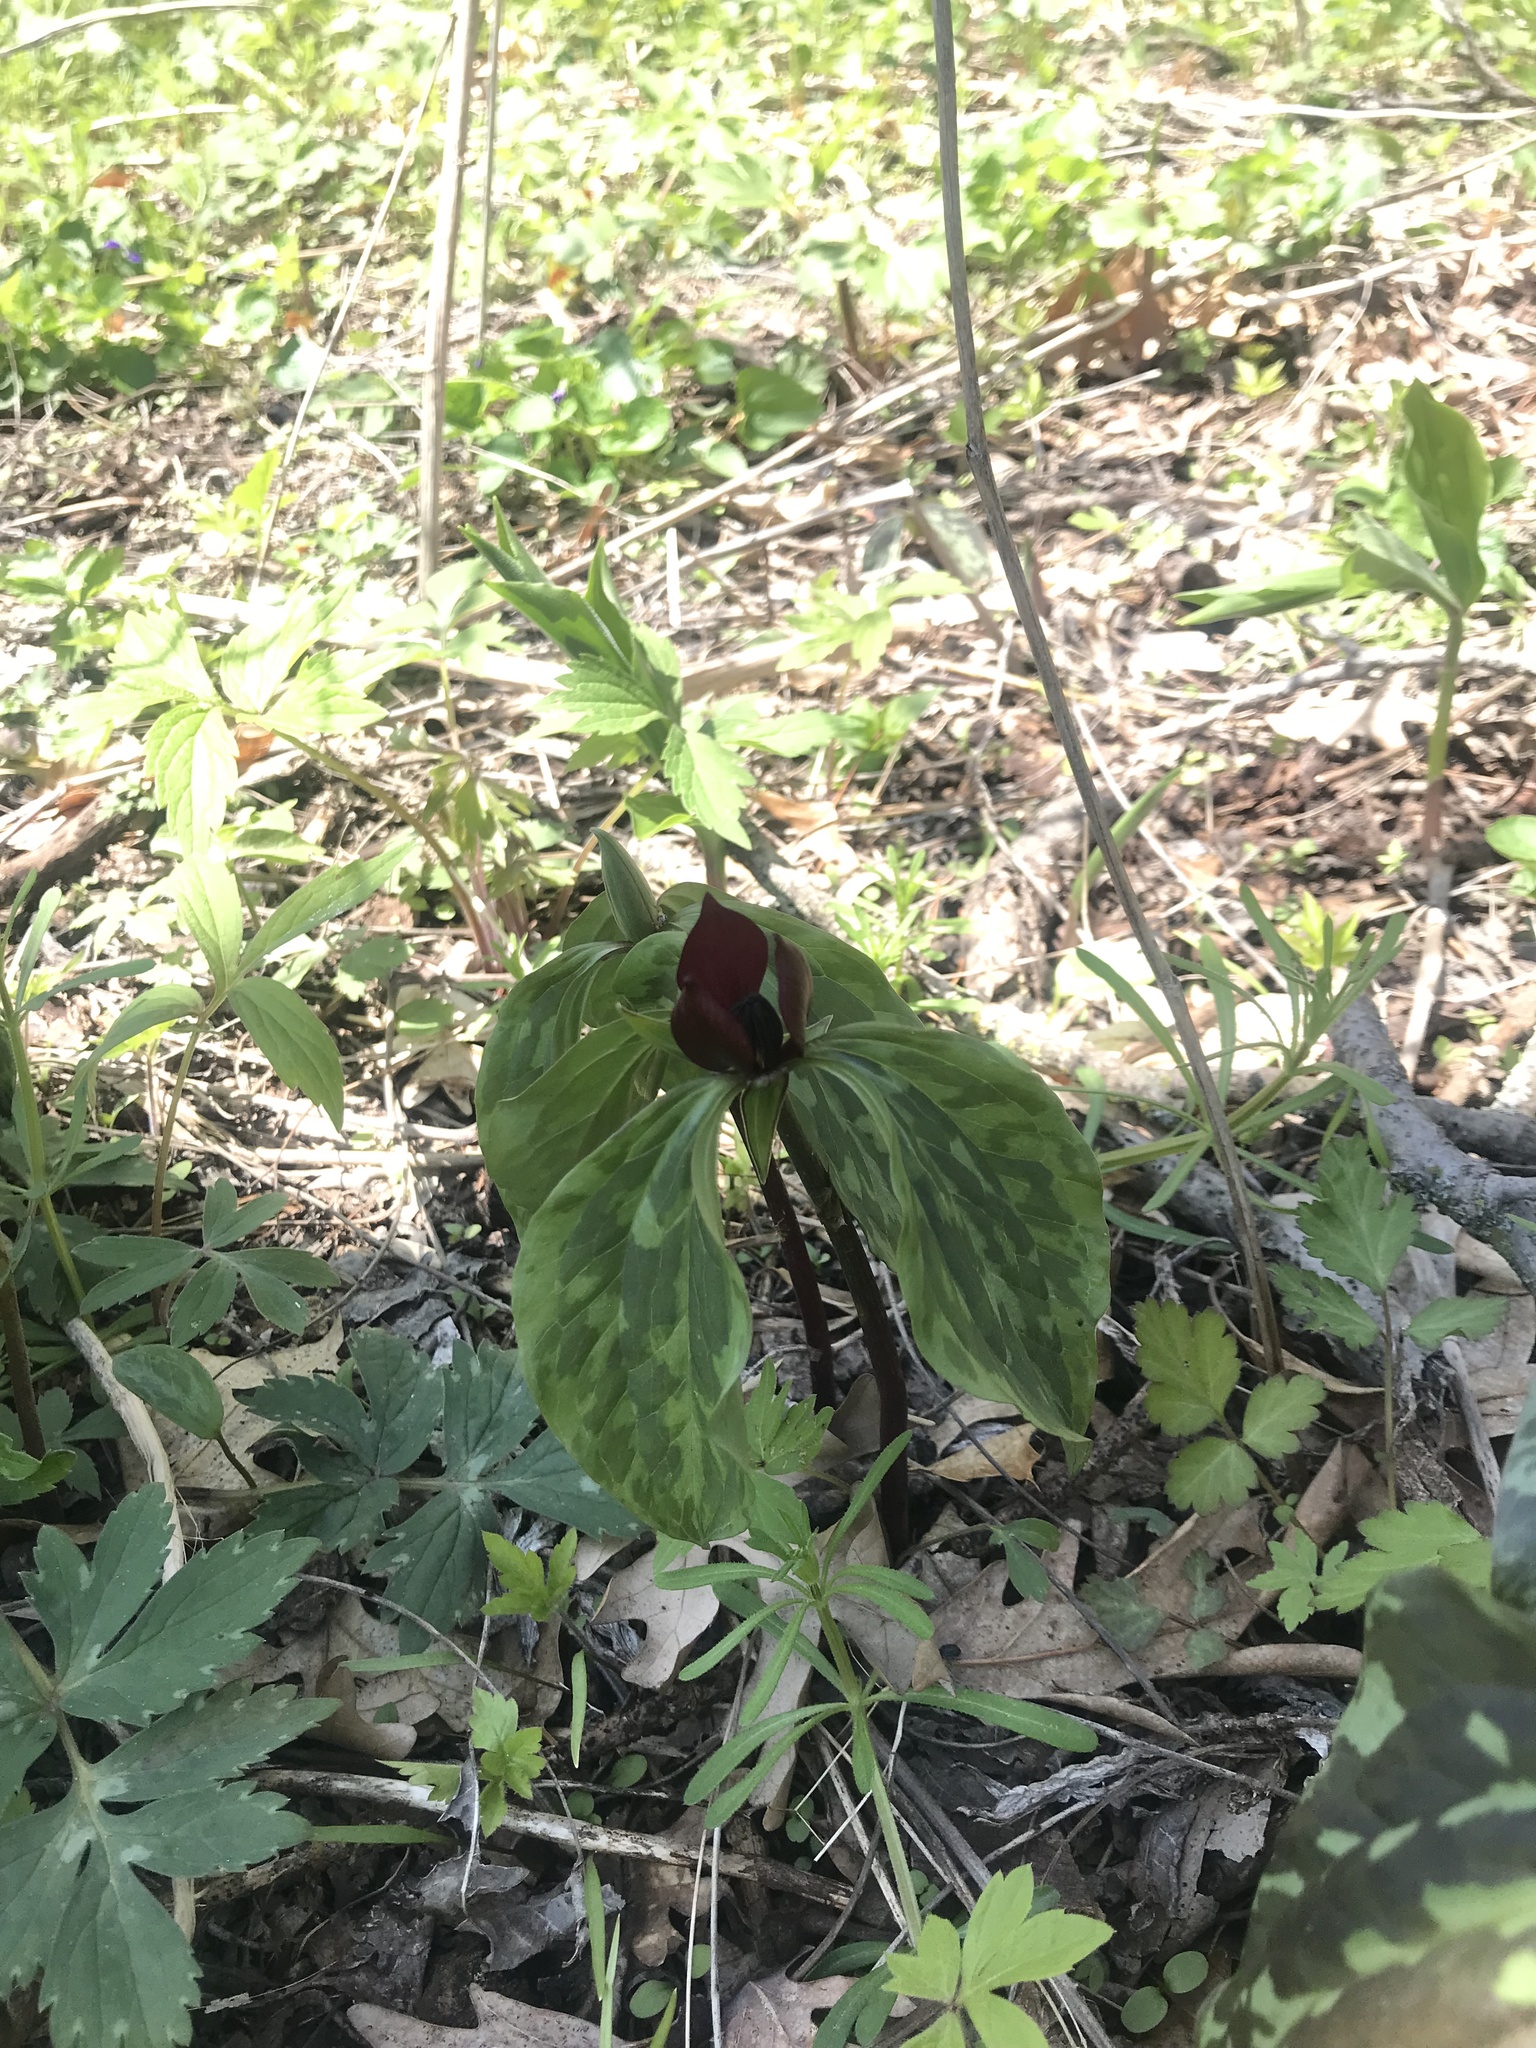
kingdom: Plantae
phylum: Tracheophyta
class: Liliopsida
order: Liliales
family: Melanthiaceae
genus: Trillium
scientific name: Trillium recurvatum
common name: Bloody butcher
